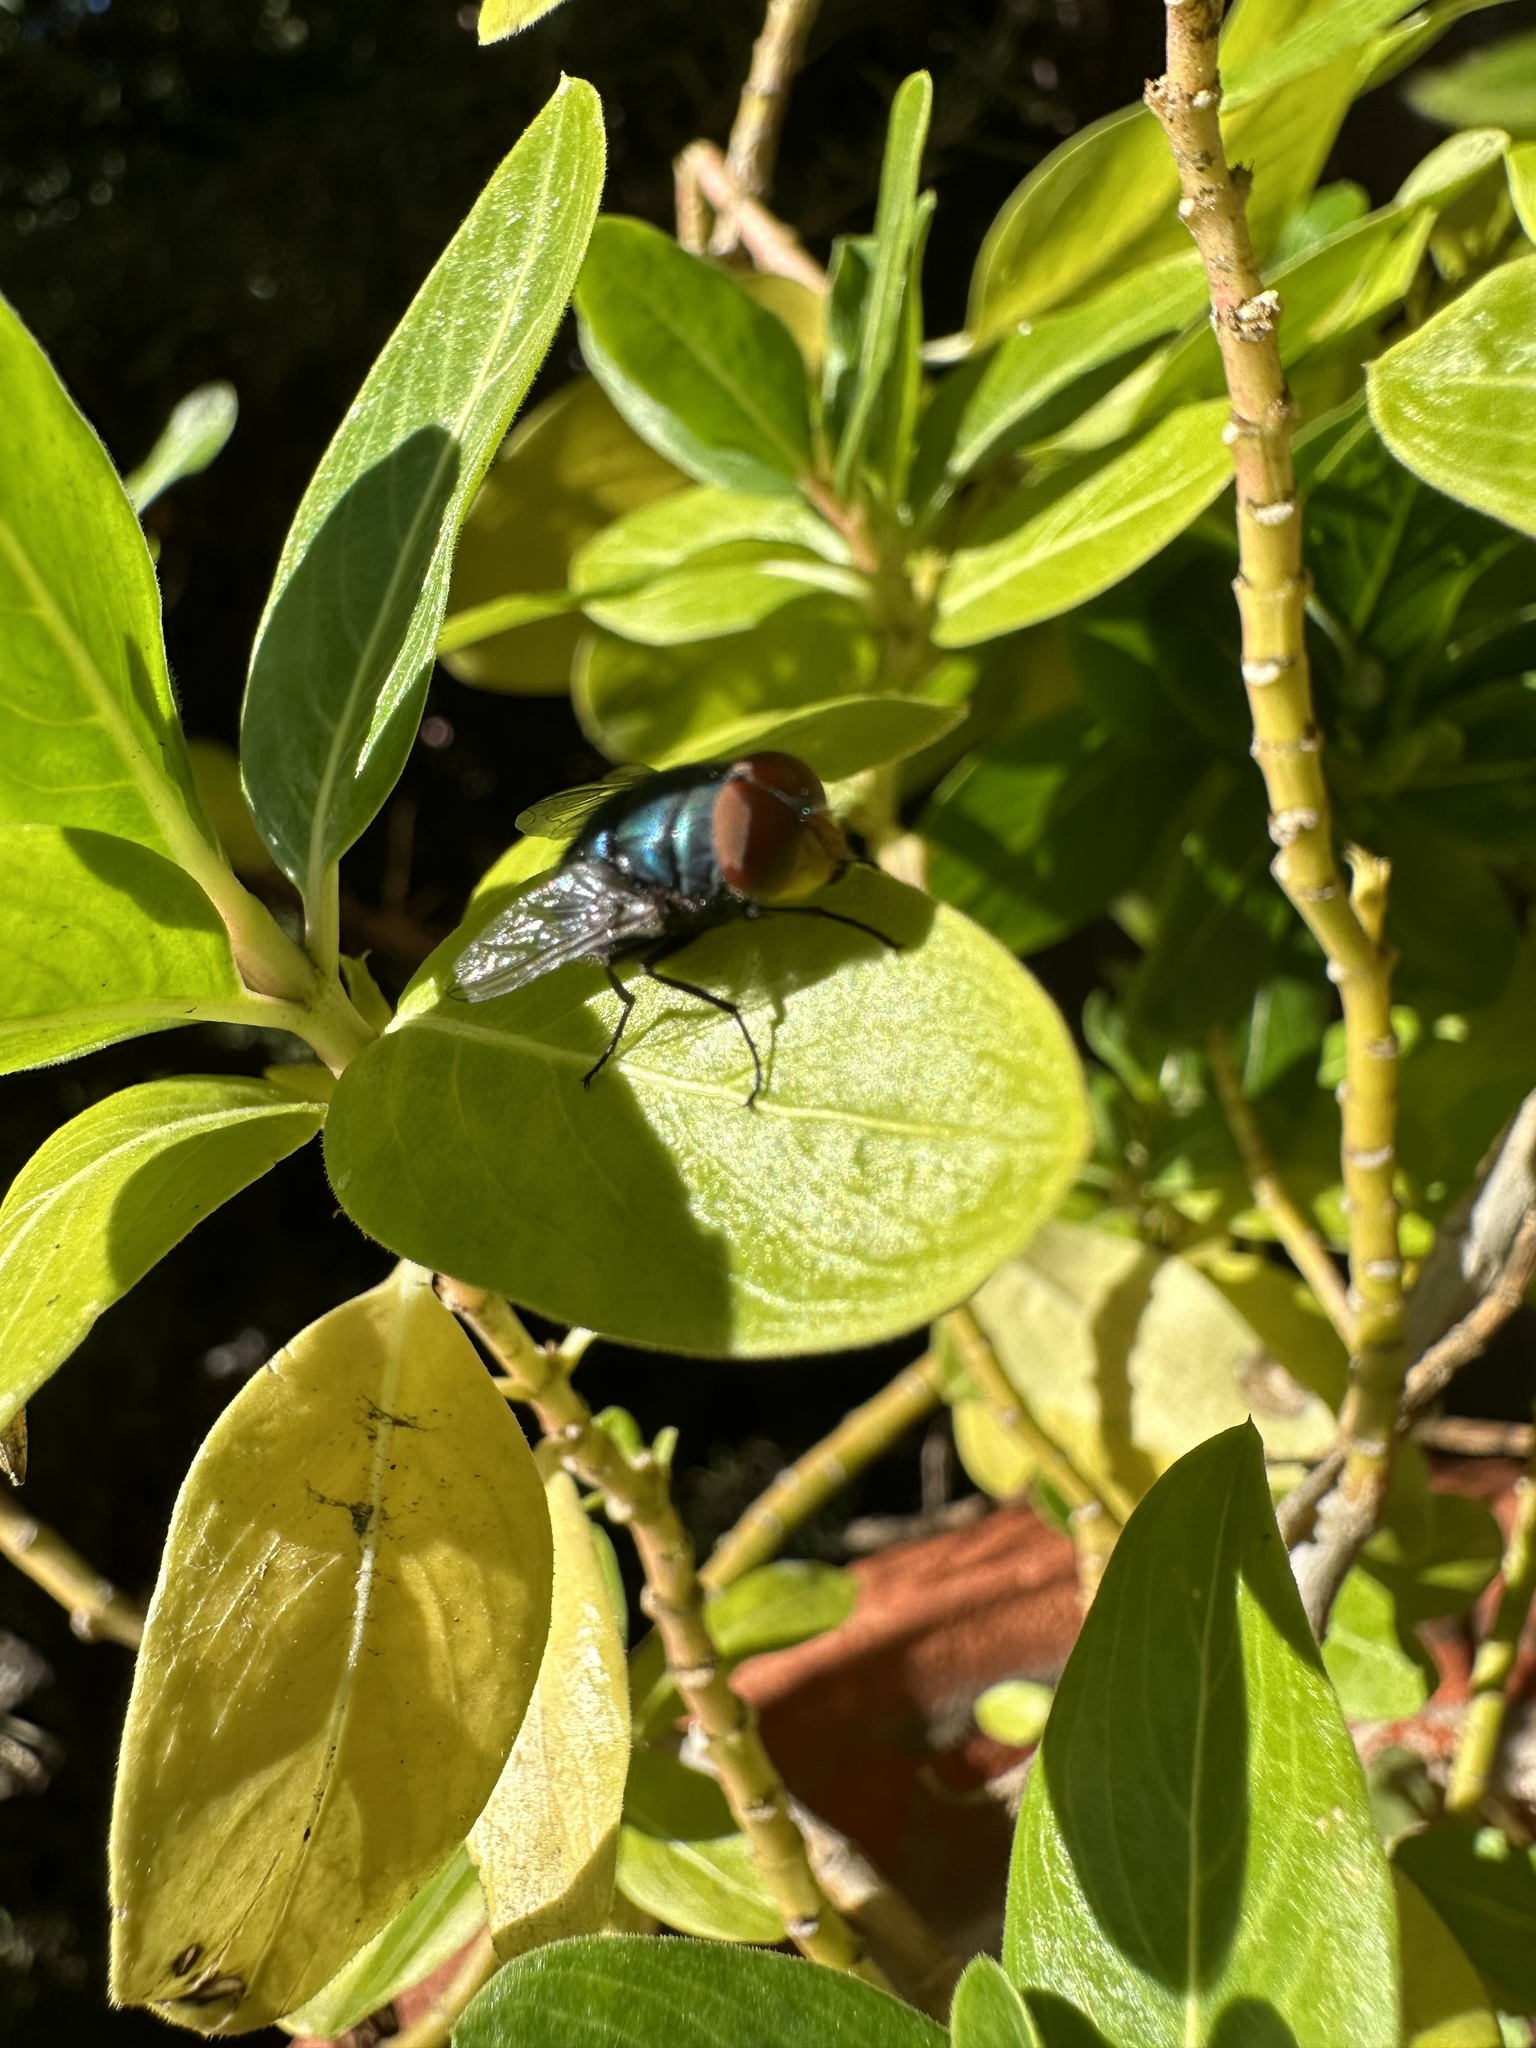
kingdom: Animalia
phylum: Arthropoda
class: Insecta
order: Diptera
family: Calliphoridae
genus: Chrysomya
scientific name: Chrysomya megacephala
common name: Blow fly
